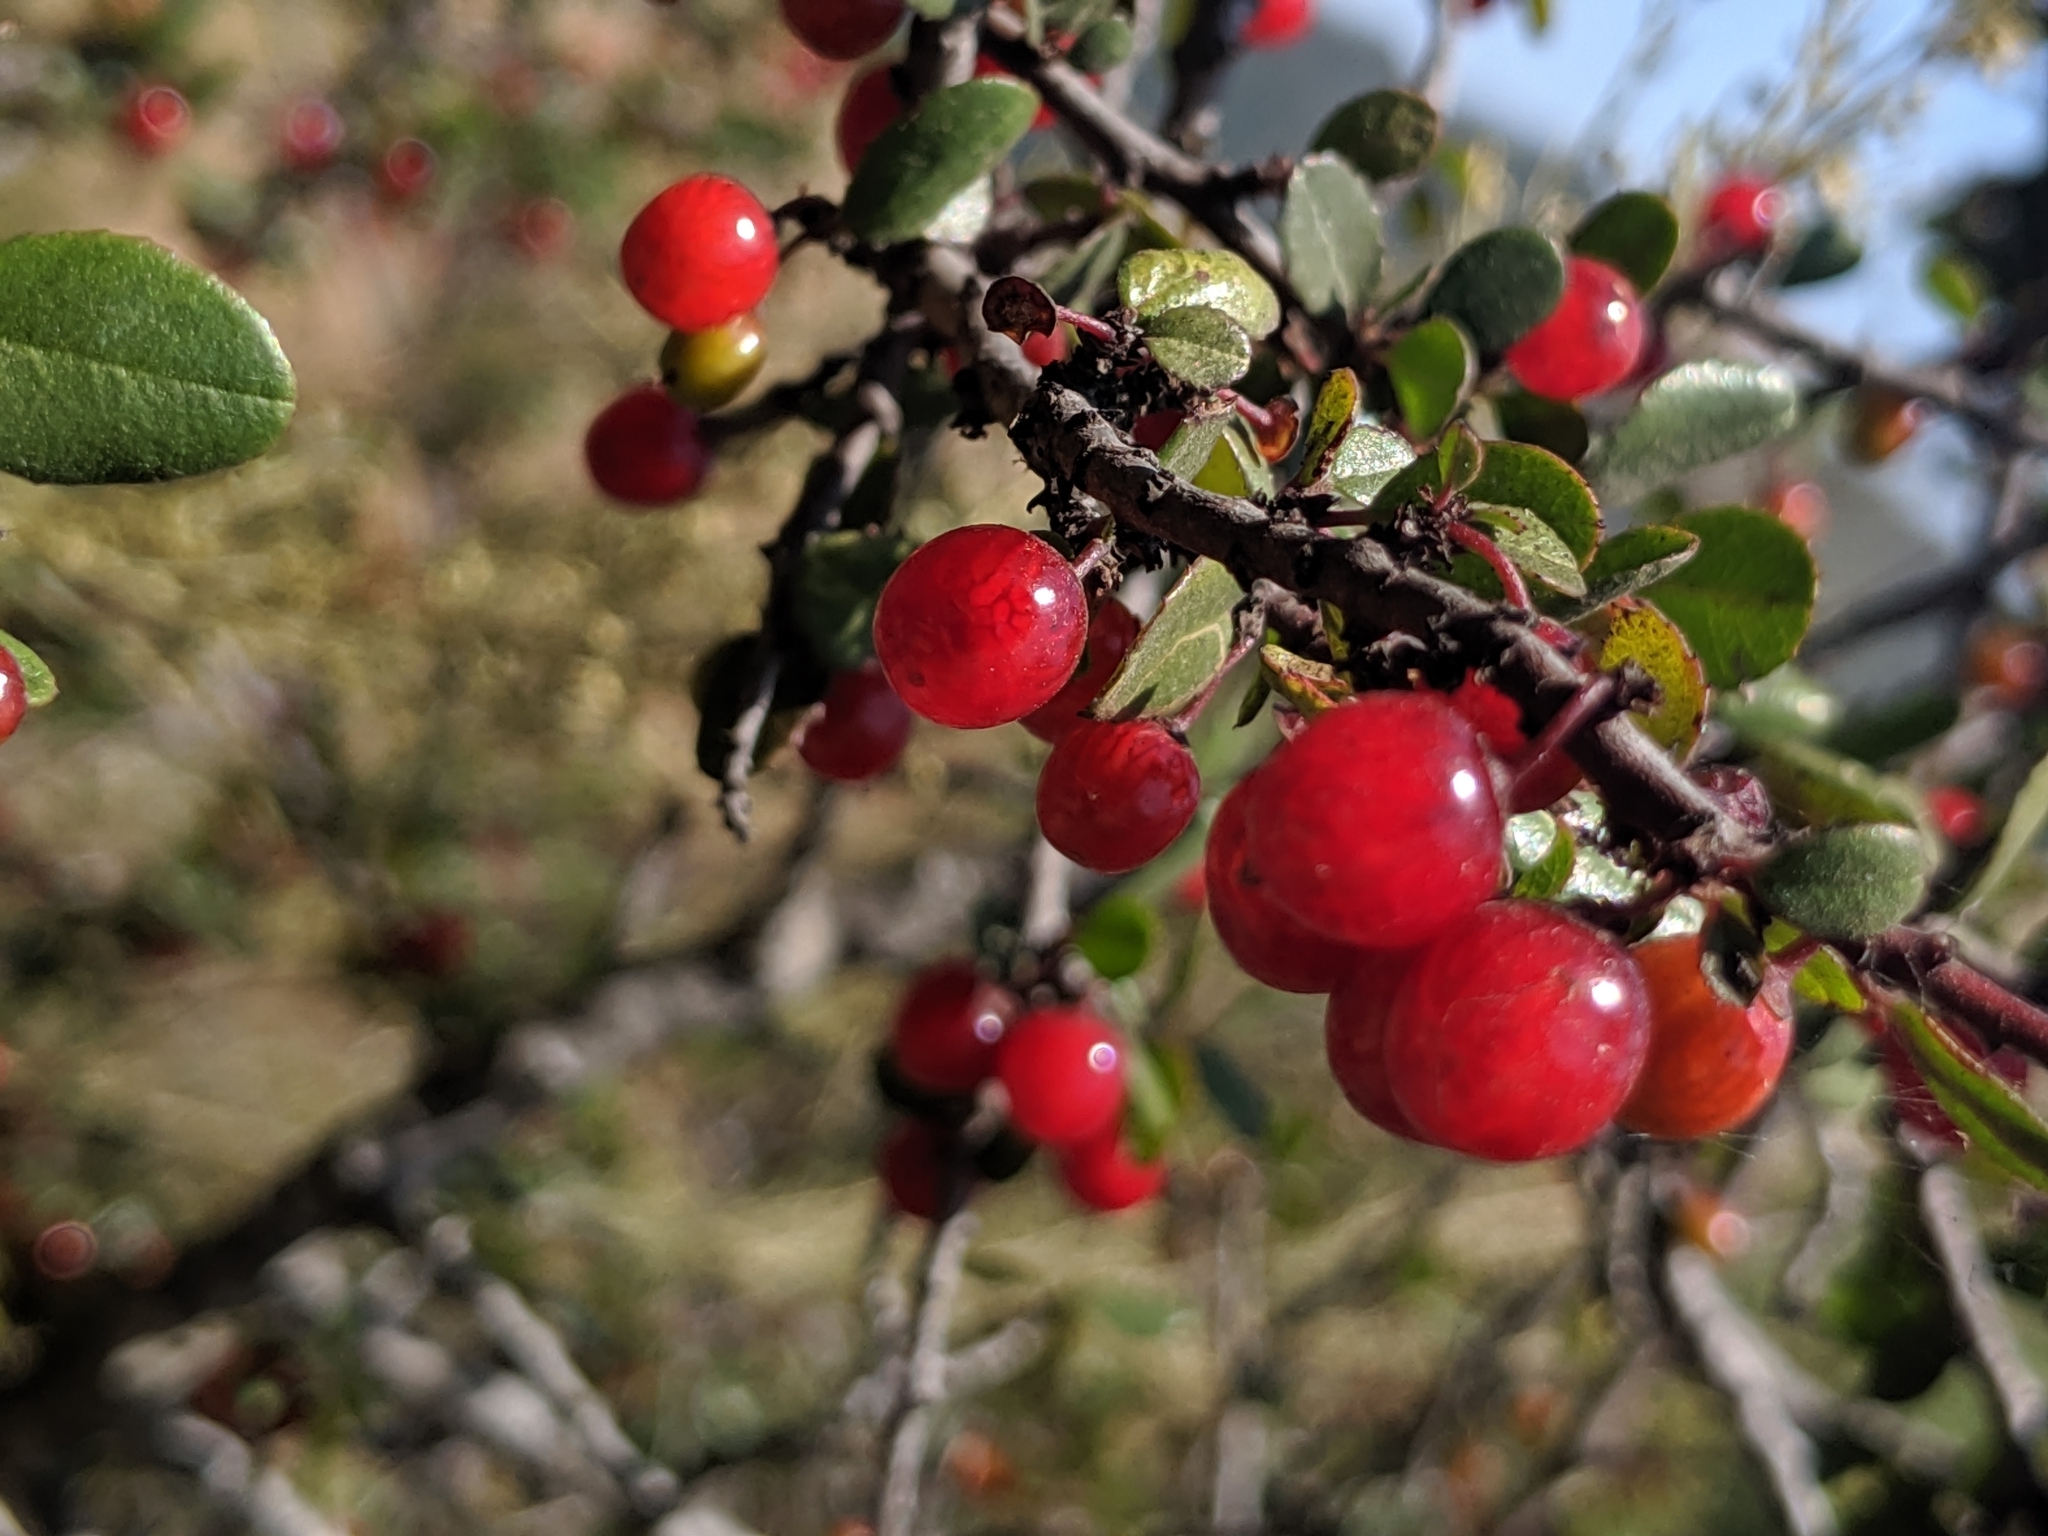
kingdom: Plantae
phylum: Tracheophyta
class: Magnoliopsida
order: Rosales
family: Rhamnaceae
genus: Endotropis
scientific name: Endotropis crocea
